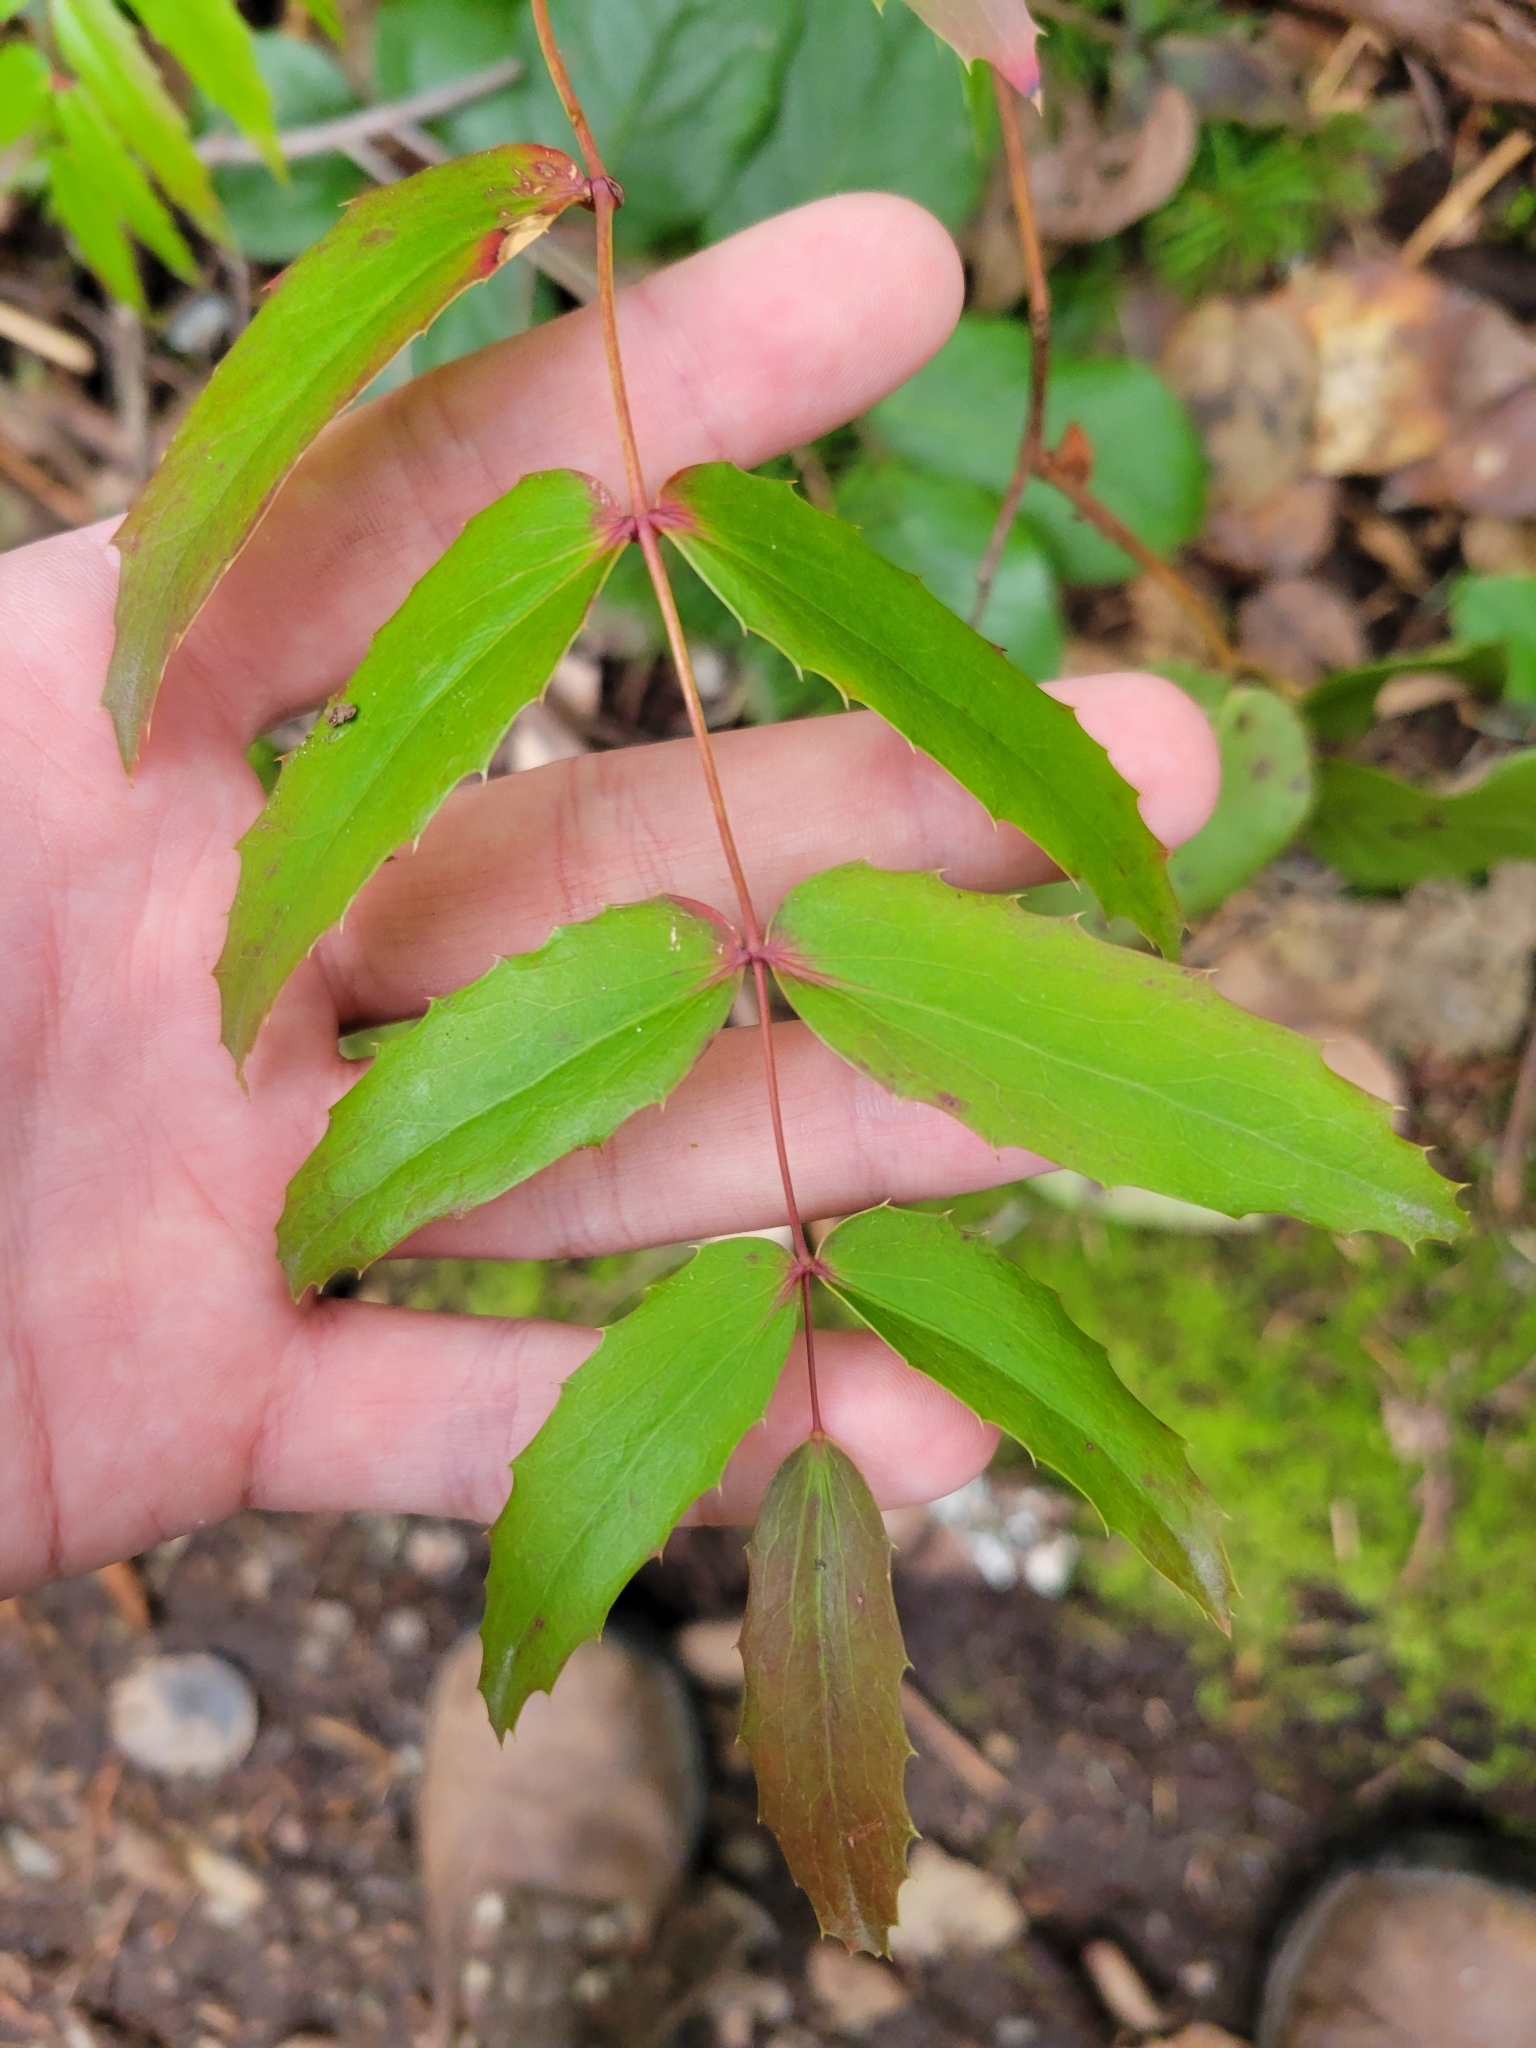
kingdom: Plantae
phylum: Tracheophyta
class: Magnoliopsida
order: Ranunculales
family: Berberidaceae
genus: Mahonia
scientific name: Mahonia nervosa
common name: Cascade oregon-grape
